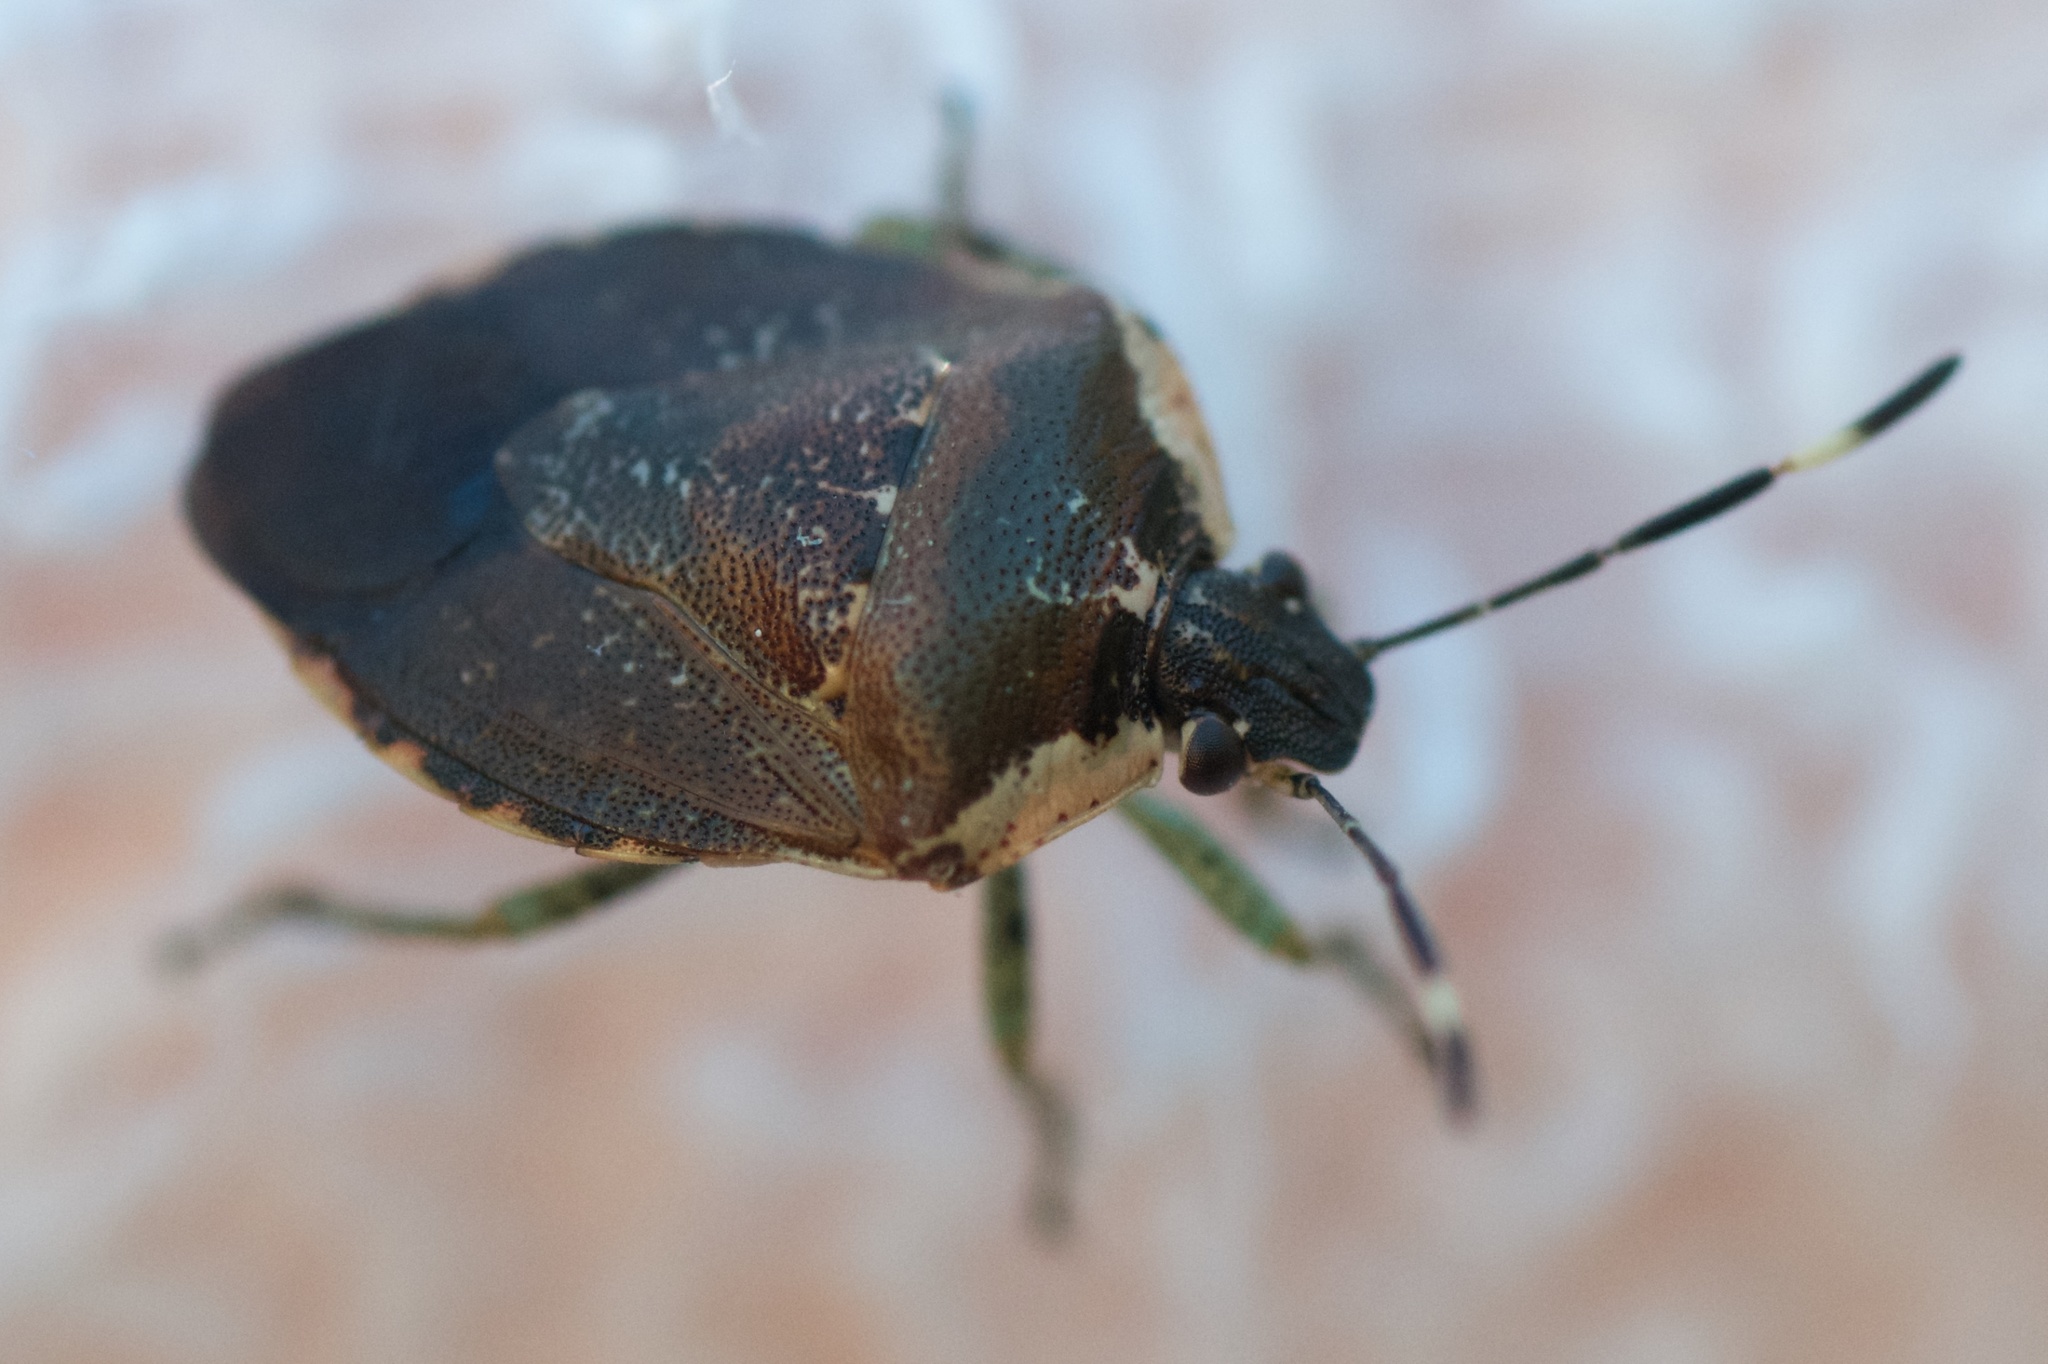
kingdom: Animalia
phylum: Arthropoda
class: Insecta
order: Hemiptera
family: Pentatomidae
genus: Monteithiella
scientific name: Monteithiella
